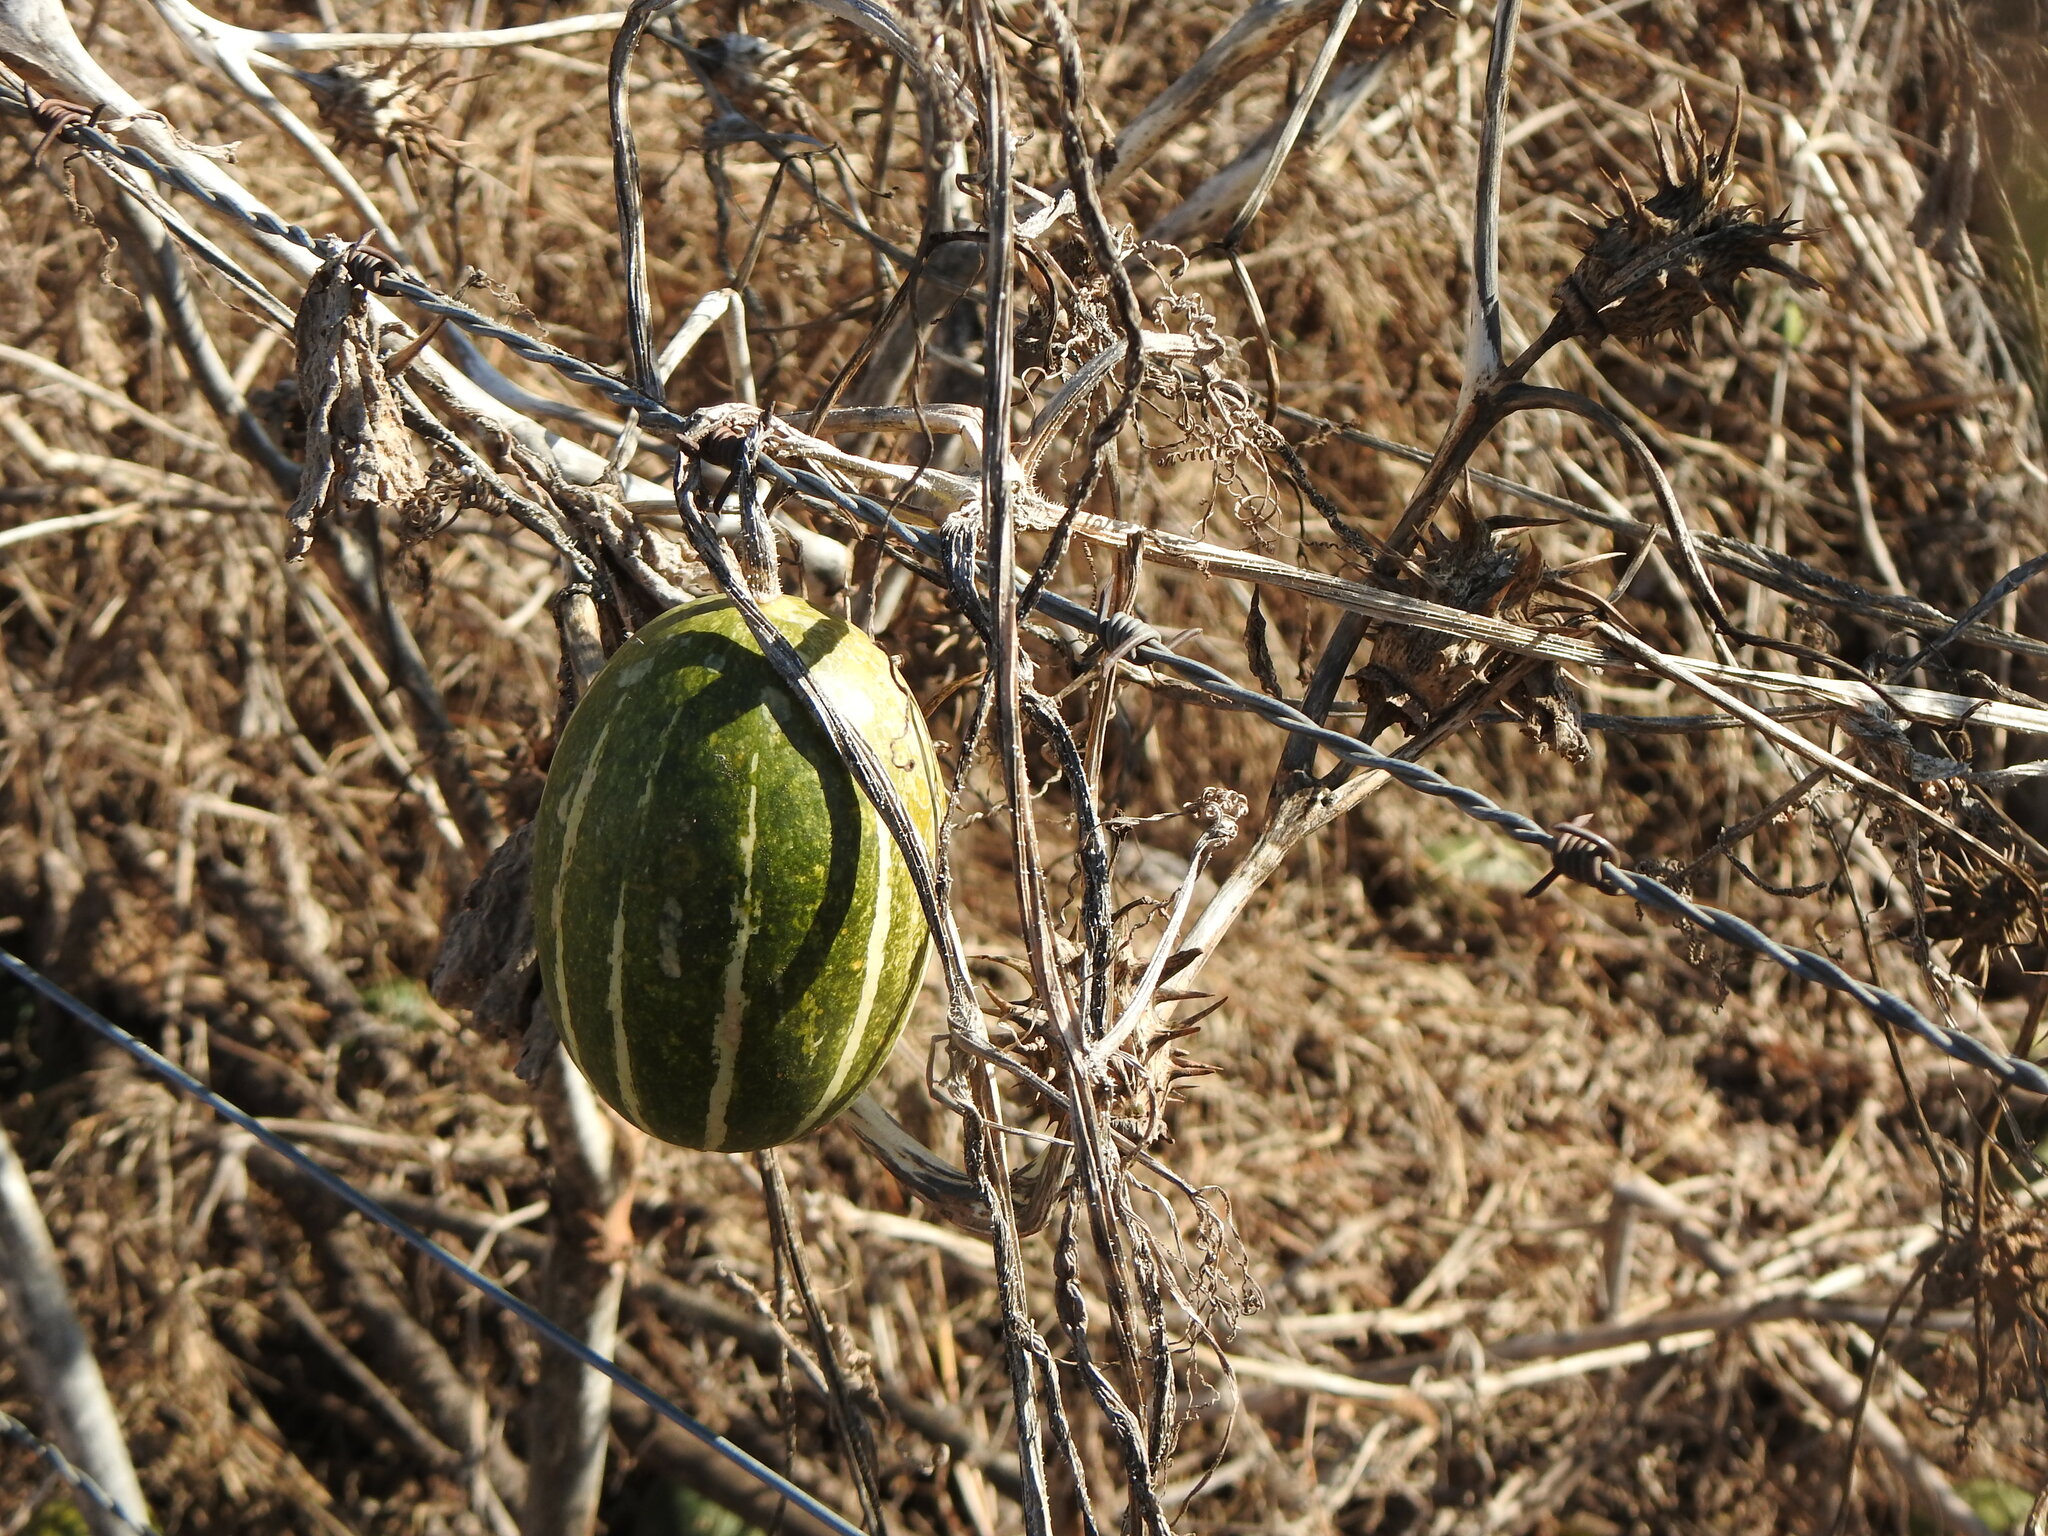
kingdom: Plantae
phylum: Tracheophyta
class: Magnoliopsida
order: Cucurbitales
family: Cucurbitaceae
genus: Cucurbita
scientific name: Cucurbita andreana
